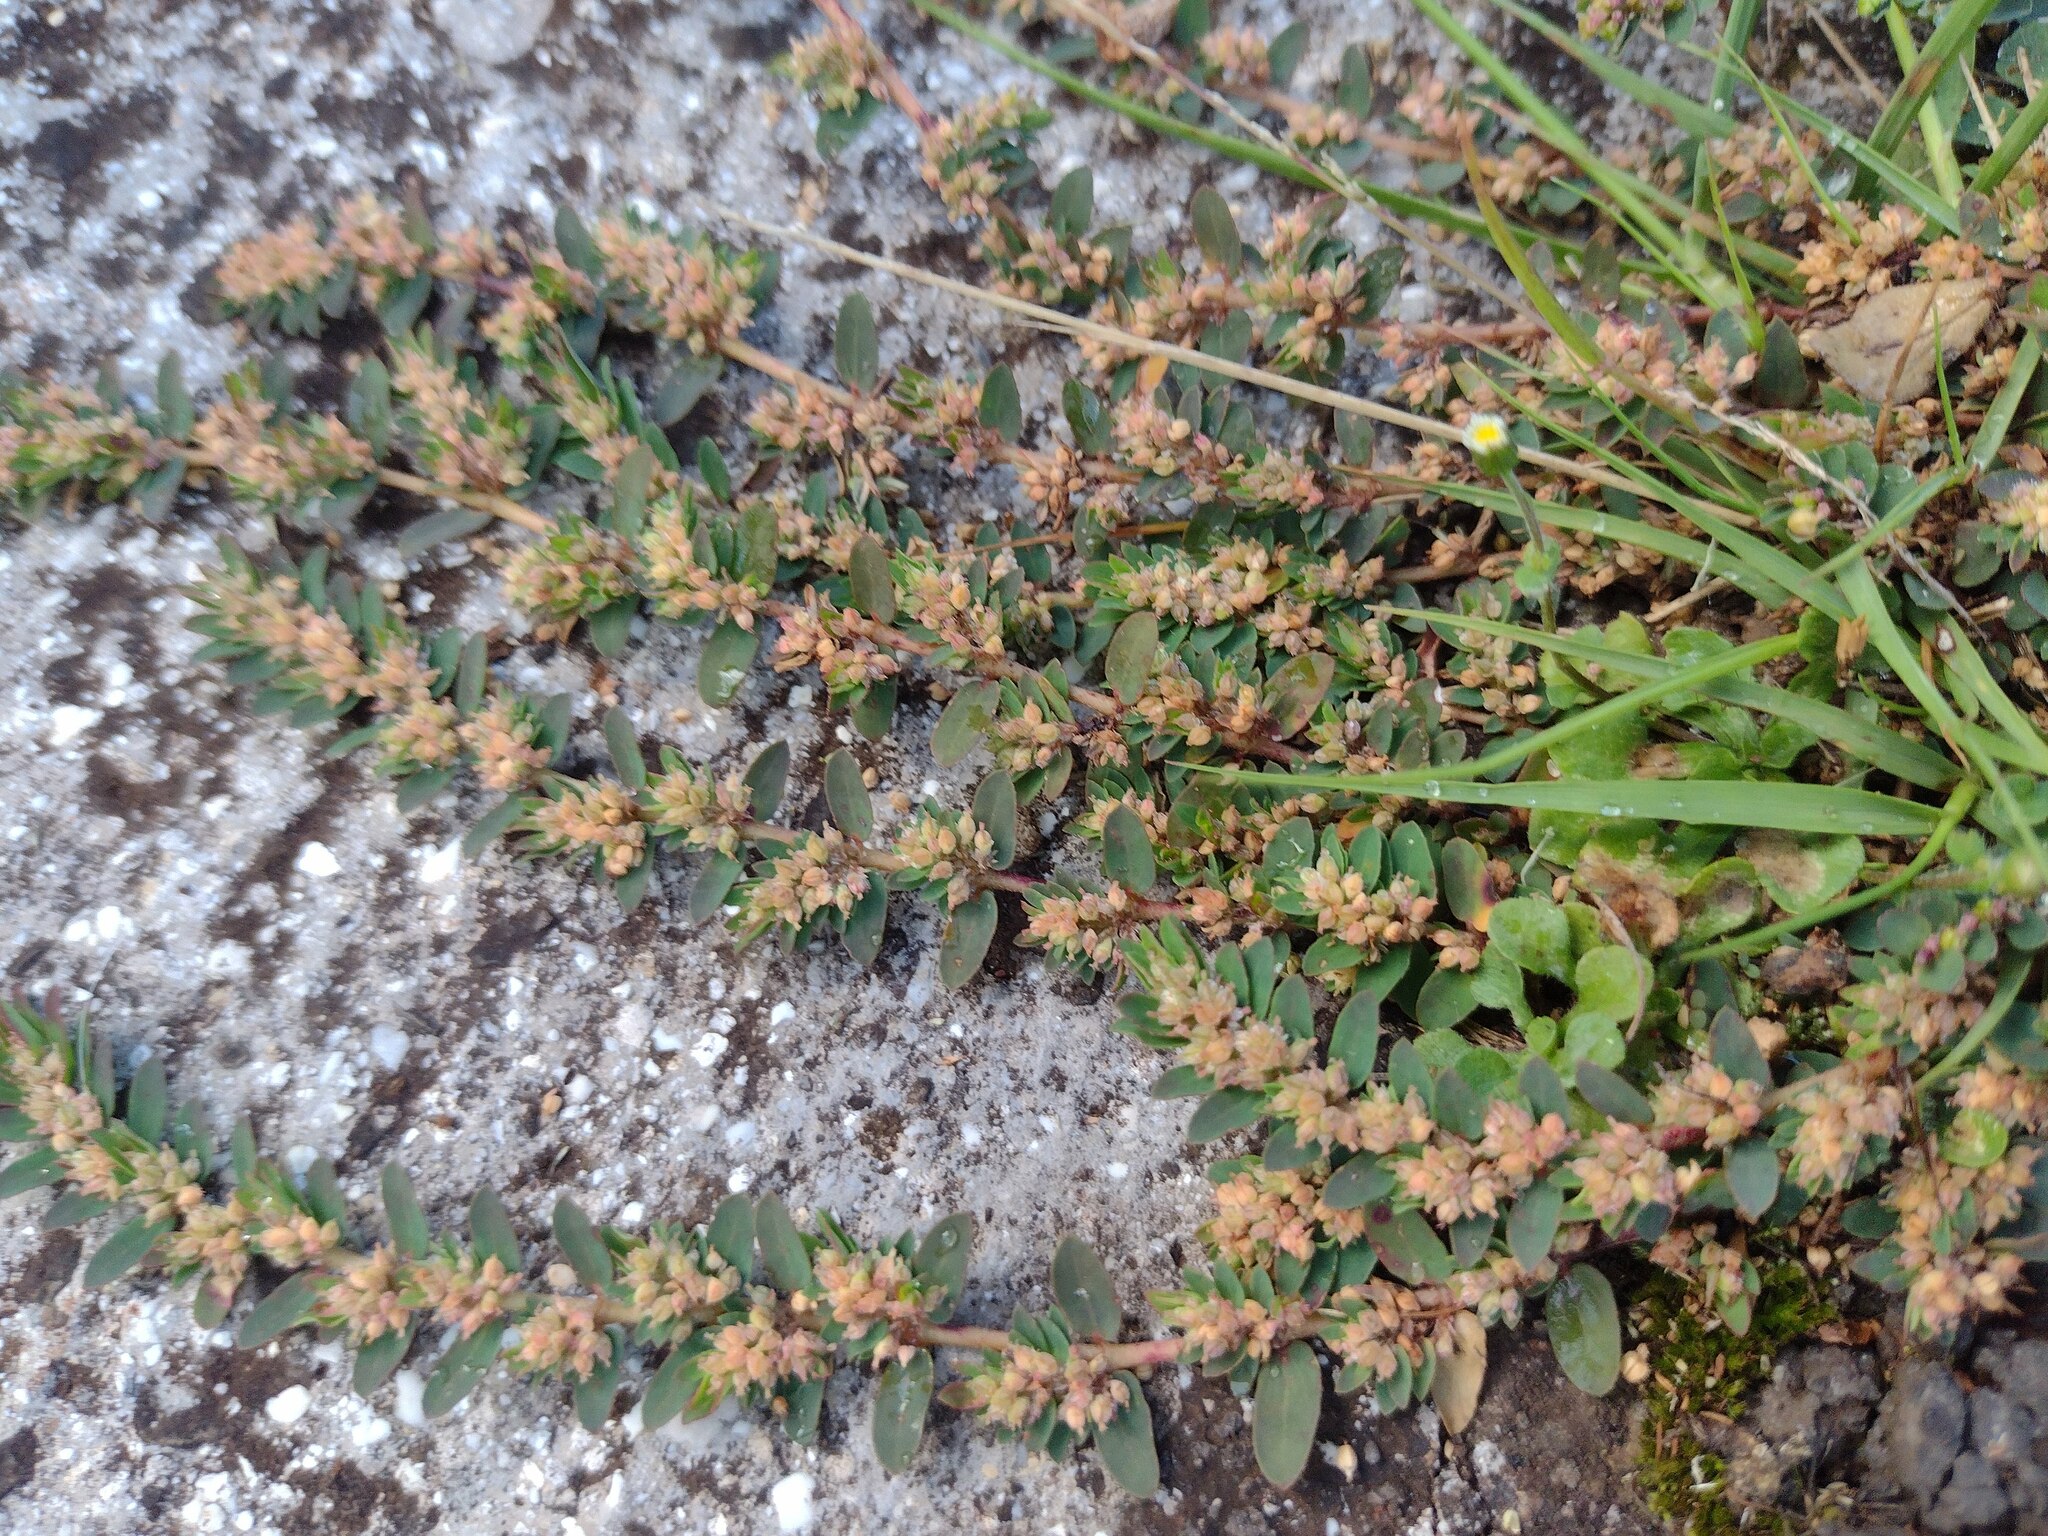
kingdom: Plantae
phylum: Tracheophyta
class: Magnoliopsida
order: Malpighiales
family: Euphorbiaceae
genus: Euphorbia
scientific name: Euphorbia thymifolia
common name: Gulf sandmat
